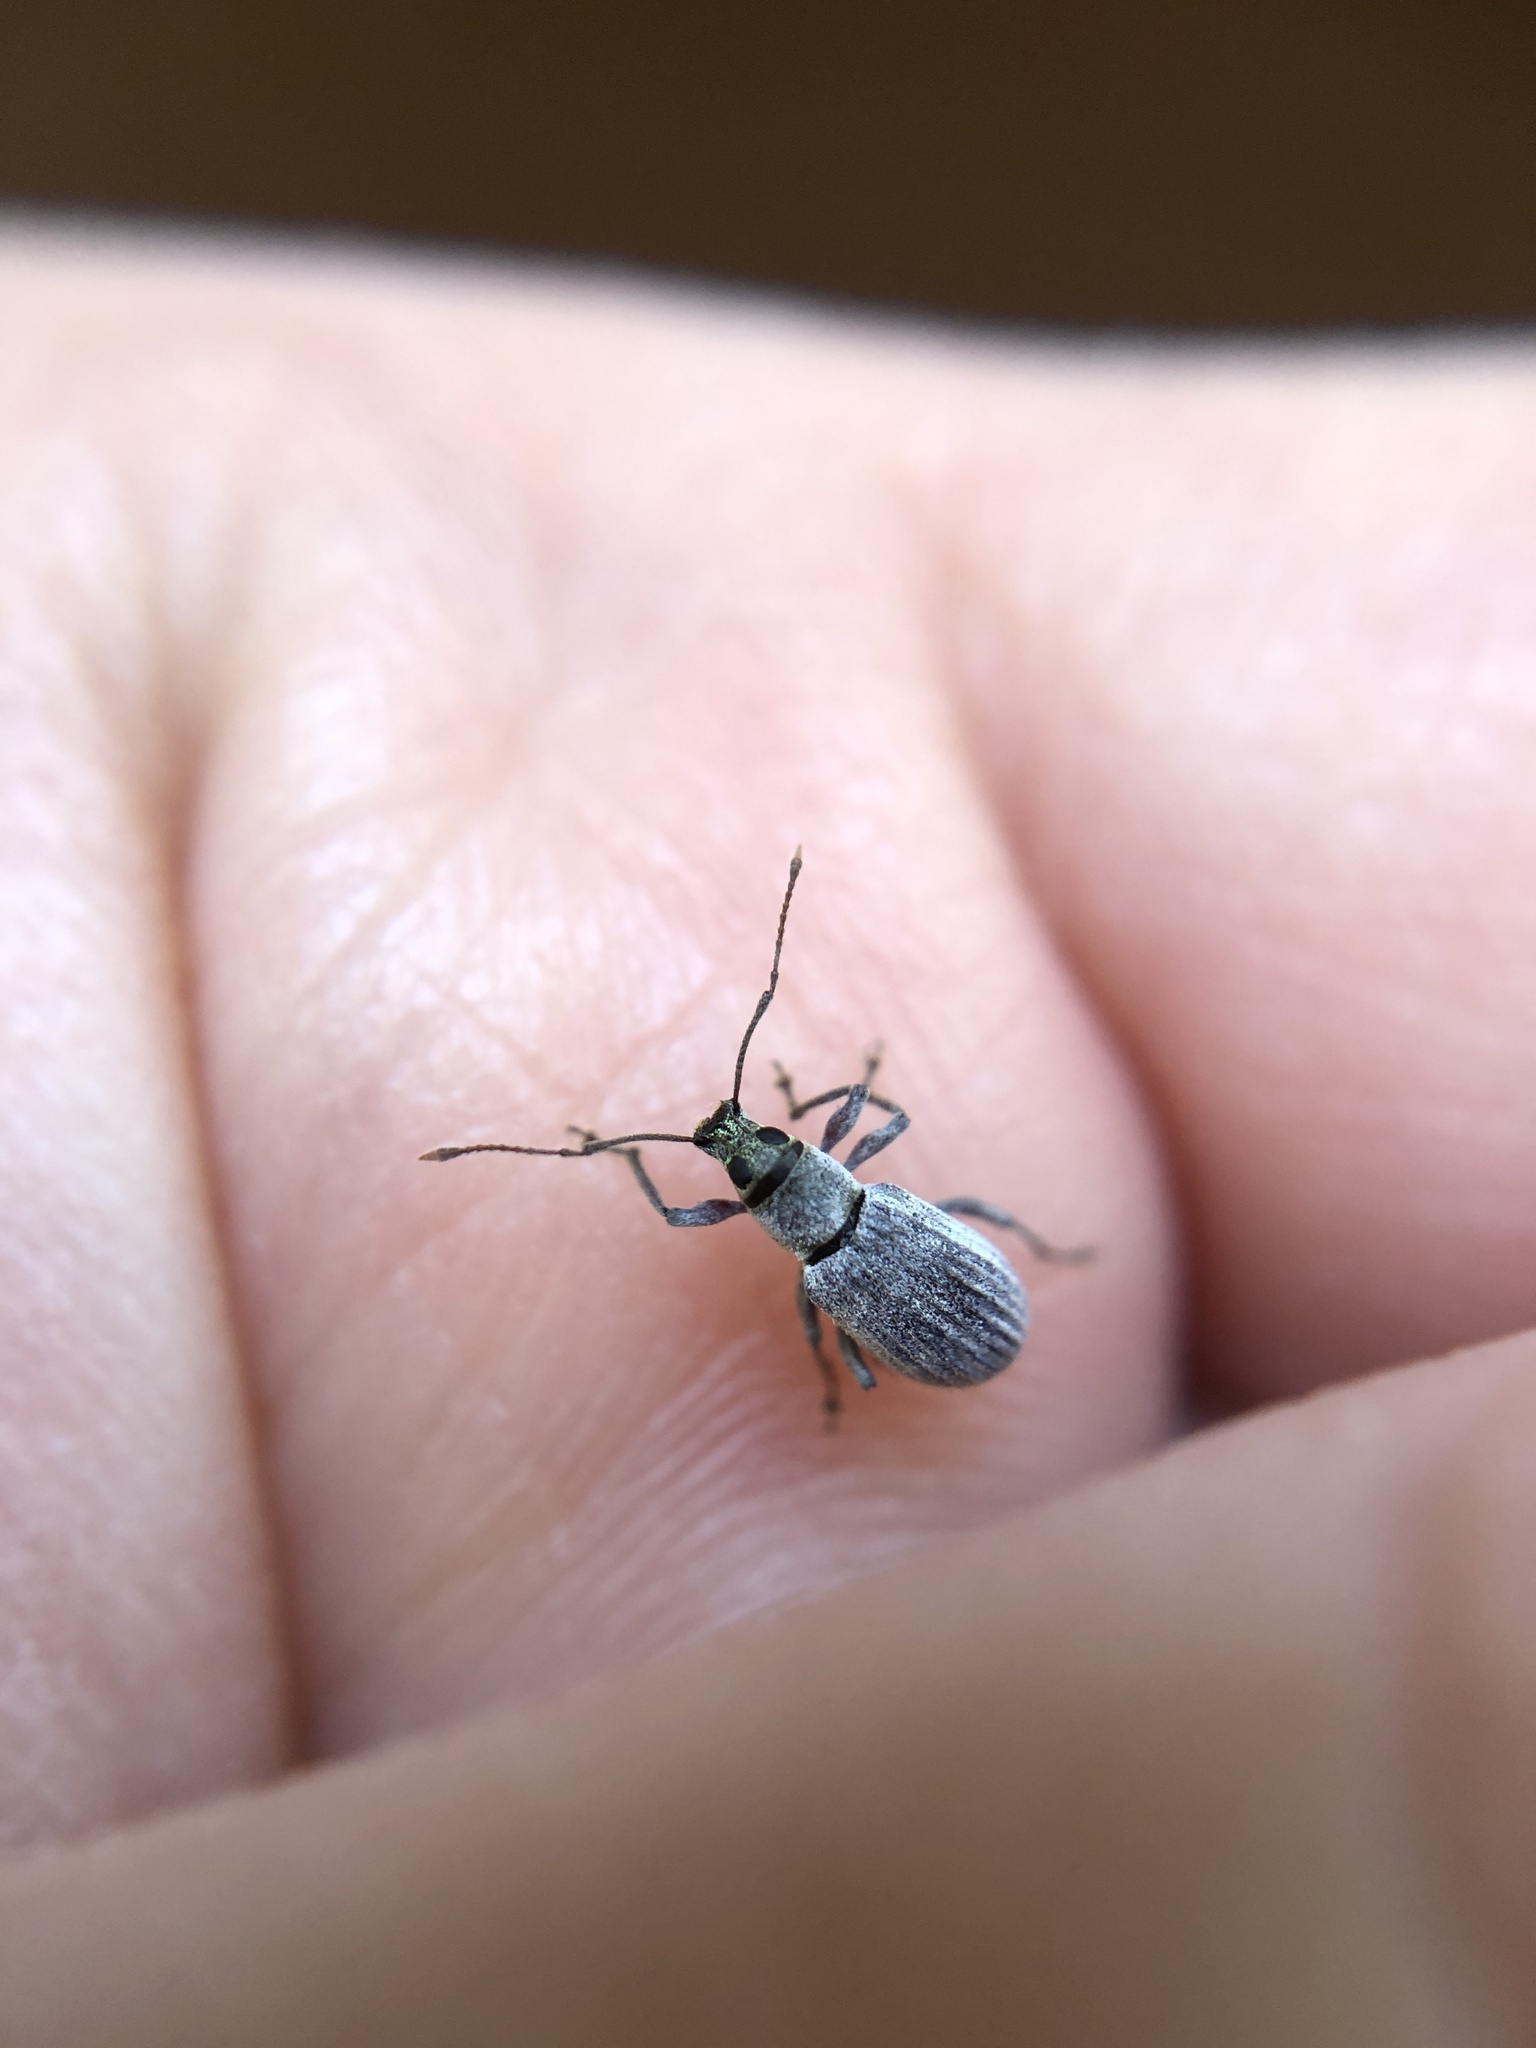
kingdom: Animalia
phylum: Arthropoda
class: Insecta
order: Coleoptera
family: Curculionidae
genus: Cyrtepistomus
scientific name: Cyrtepistomus castaneus
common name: Weevil
